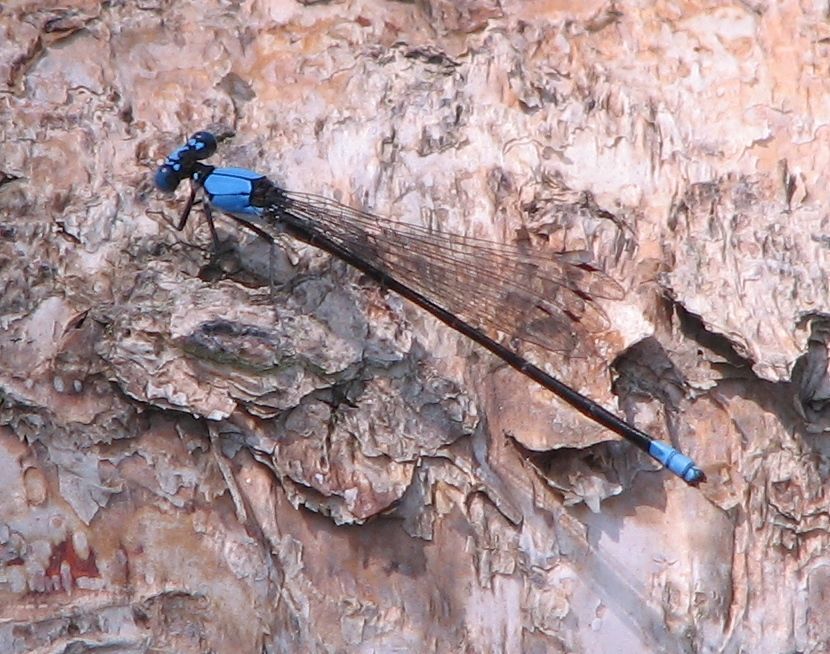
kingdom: Animalia
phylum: Arthropoda
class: Insecta
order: Odonata
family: Coenagrionidae
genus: Argia
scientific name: Argia apicalis
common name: Blue-fronted dancer
